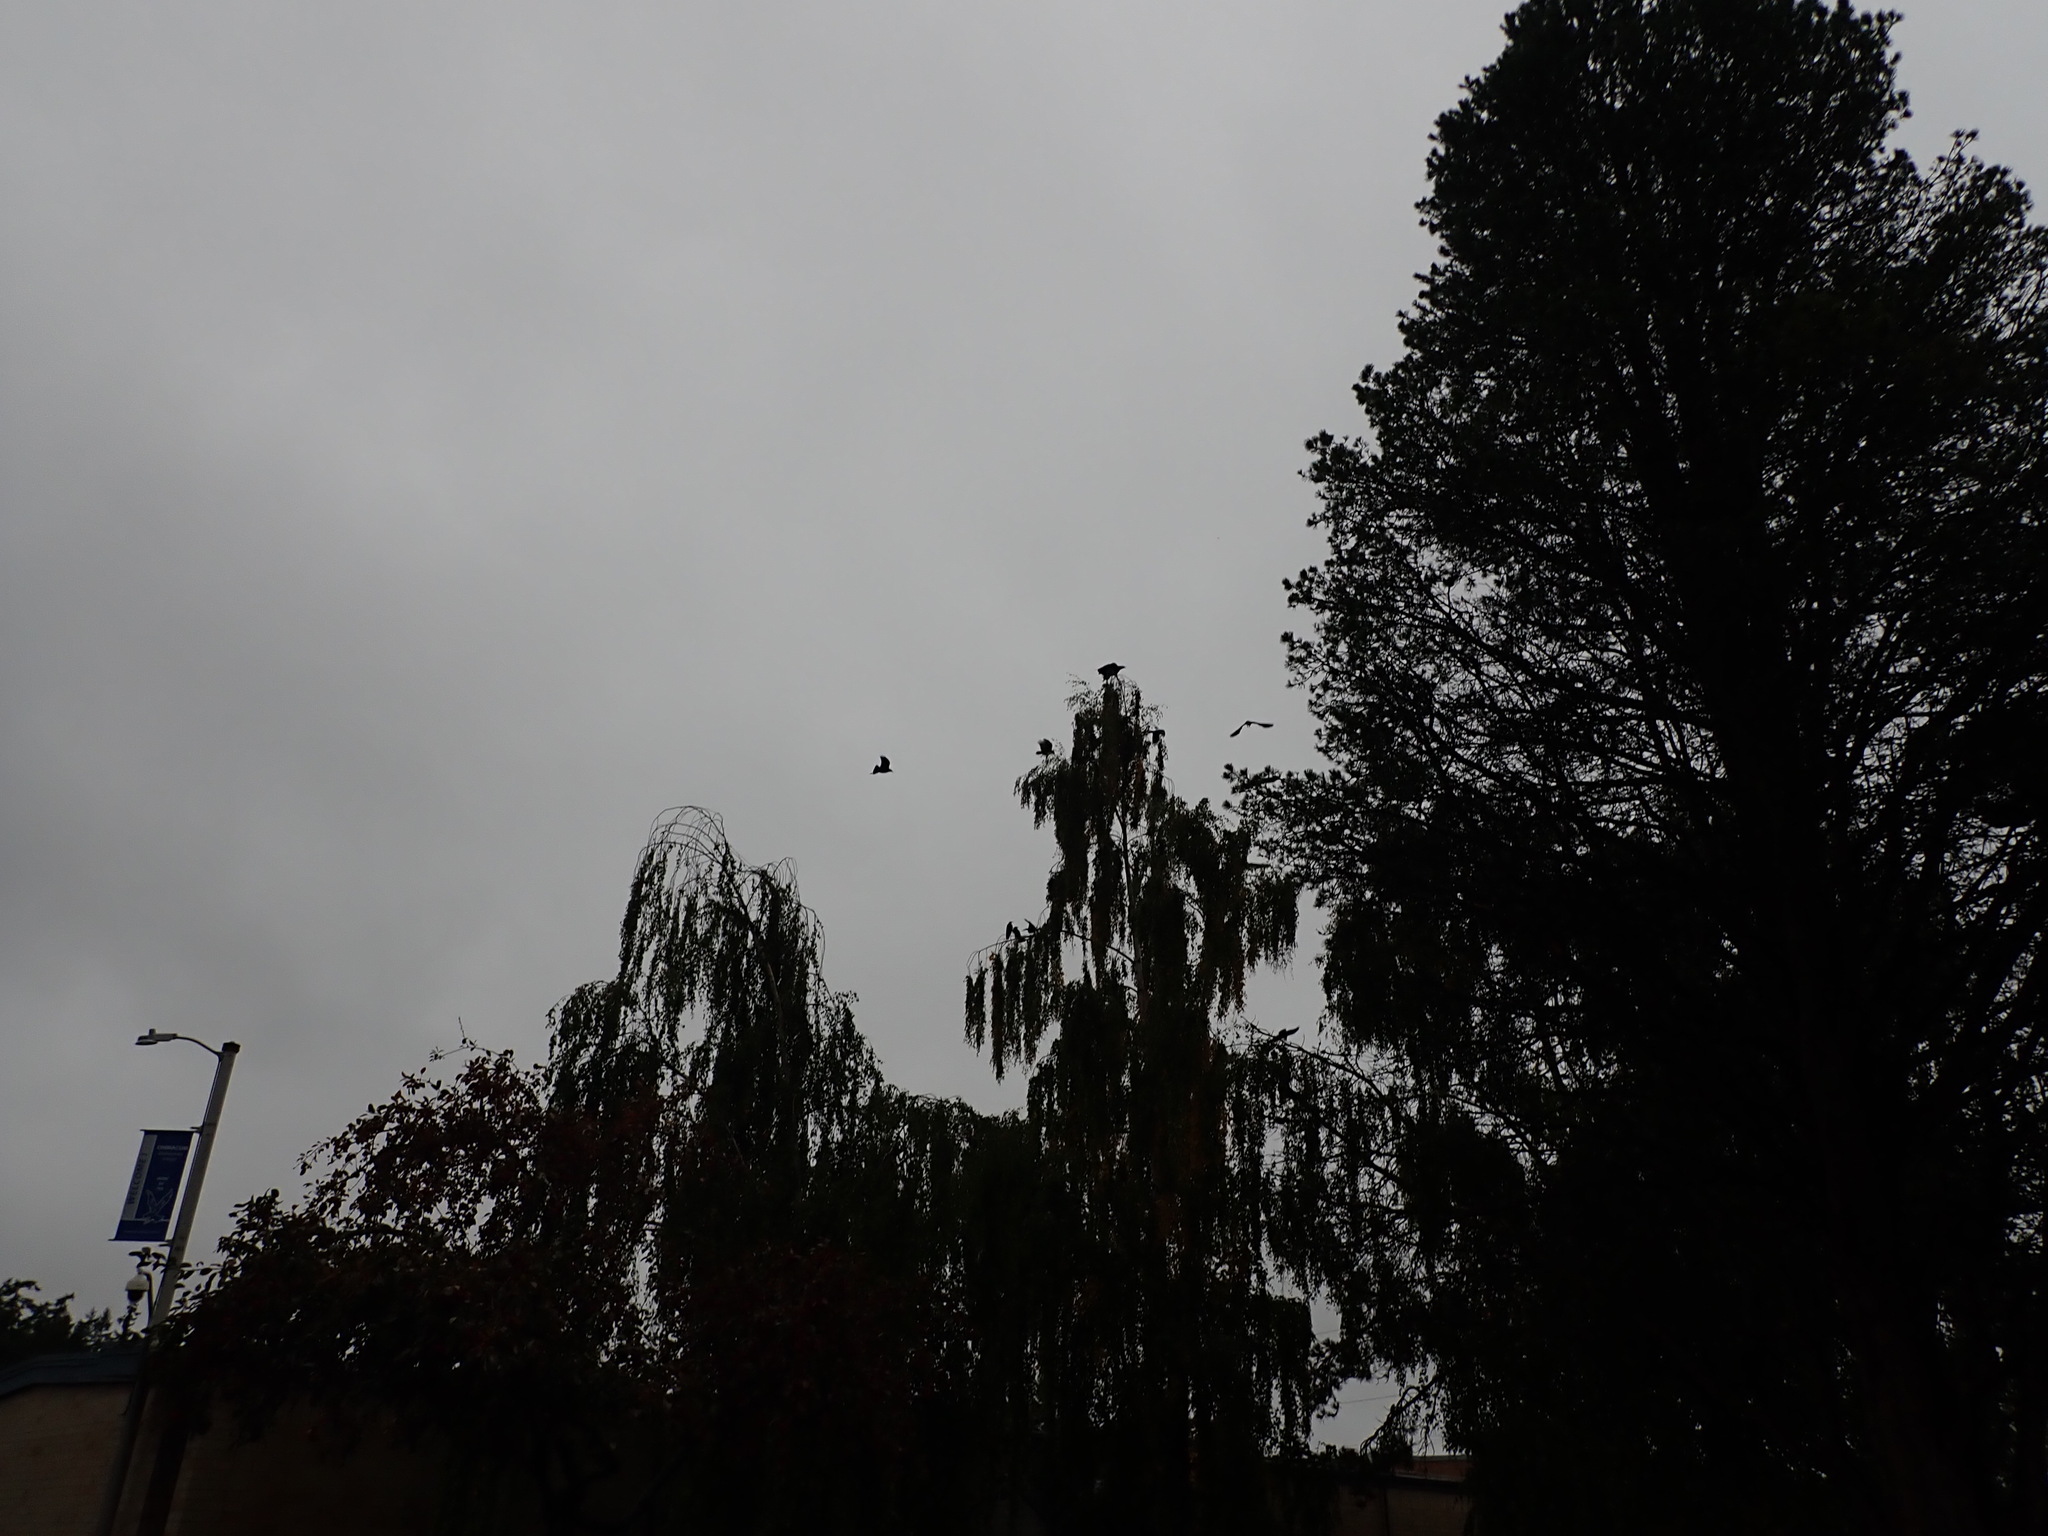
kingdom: Animalia
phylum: Chordata
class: Aves
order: Passeriformes
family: Corvidae
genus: Corvus
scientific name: Corvus brachyrhynchos
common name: American crow
